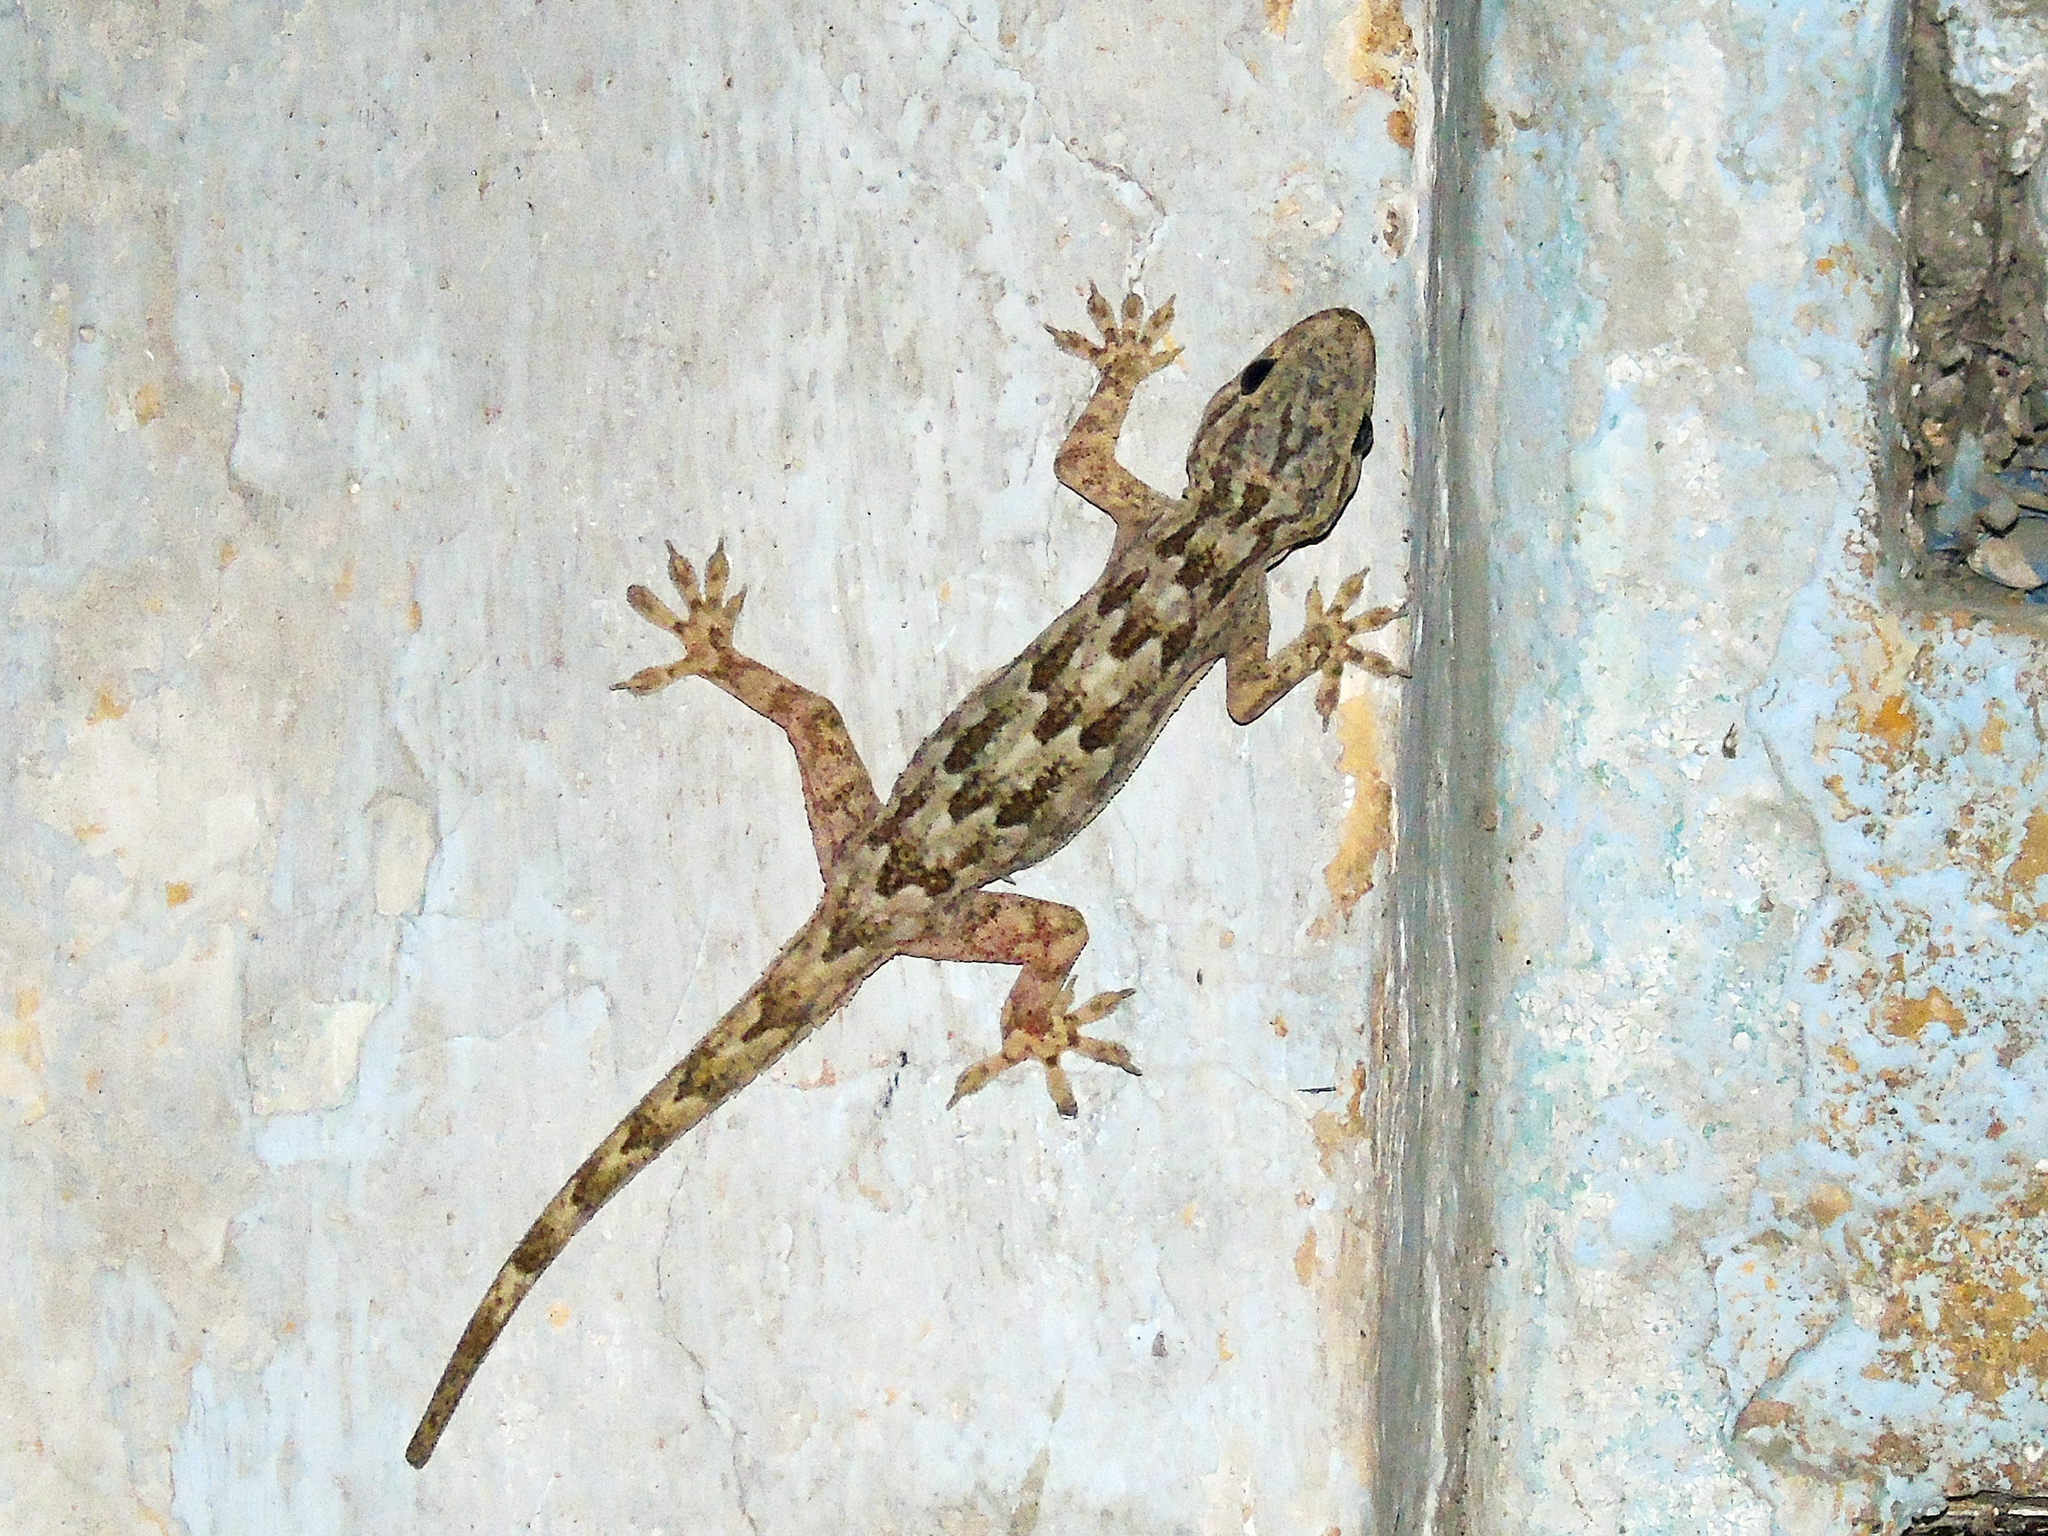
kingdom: Animalia
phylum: Chordata
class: Squamata
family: Gekkonidae
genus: Hemidactylus
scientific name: Hemidactylus flaviviridis
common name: Northern house gecko
